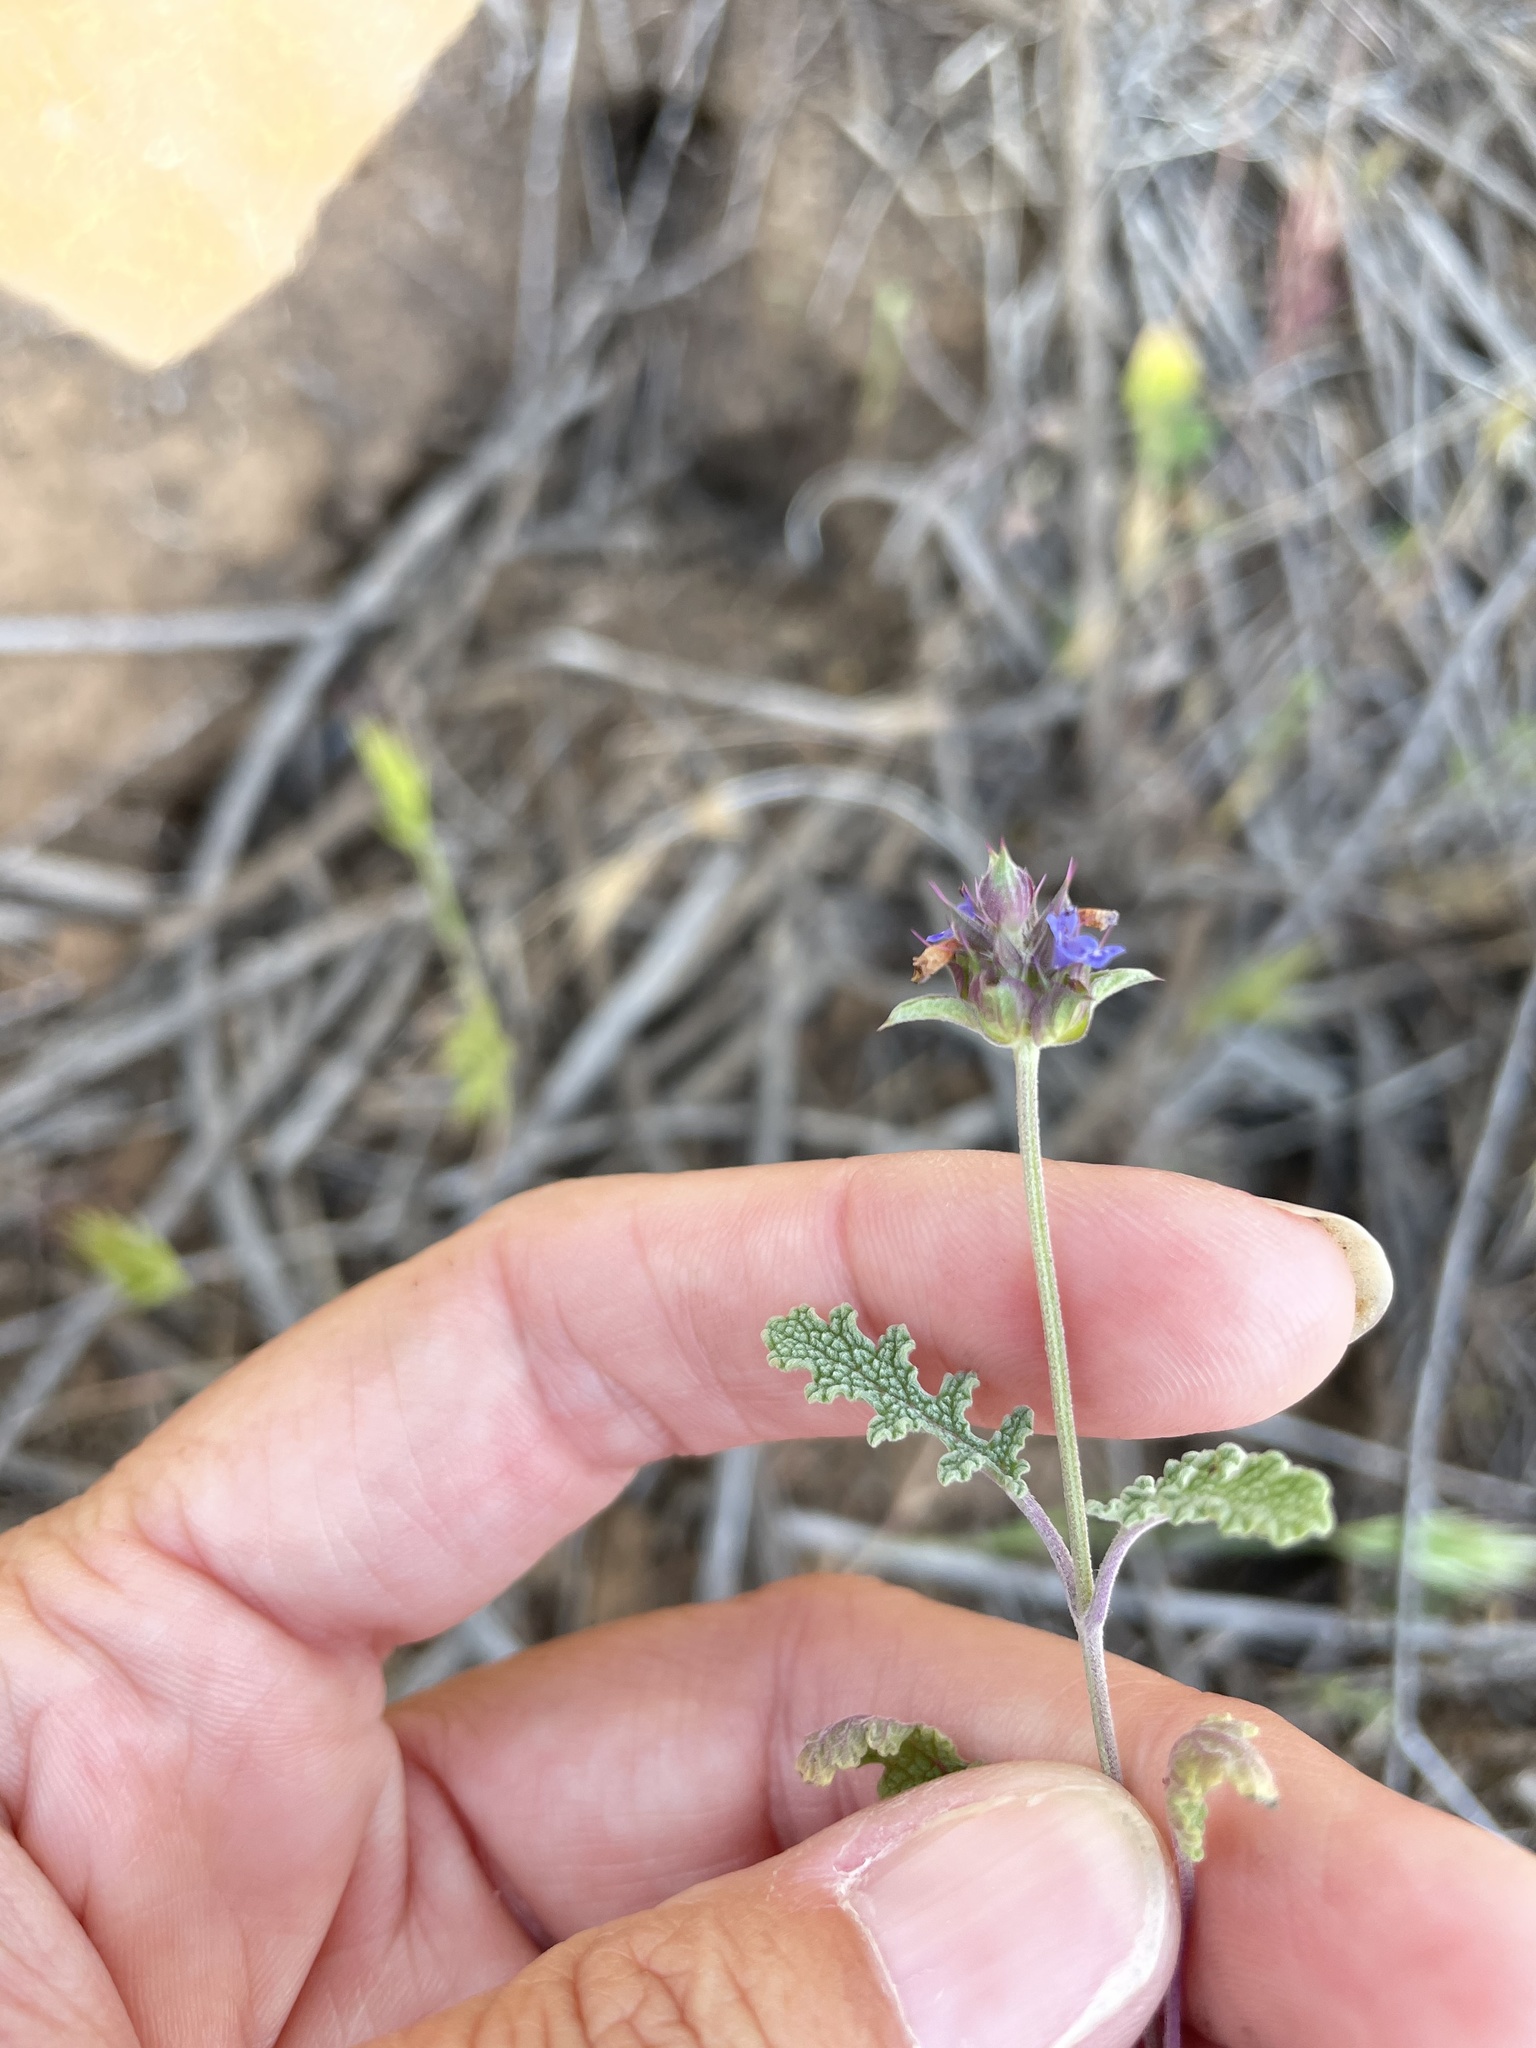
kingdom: Plantae
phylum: Tracheophyta
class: Magnoliopsida
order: Lamiales
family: Lamiaceae
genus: Salvia
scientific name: Salvia columbariae
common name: Chia
